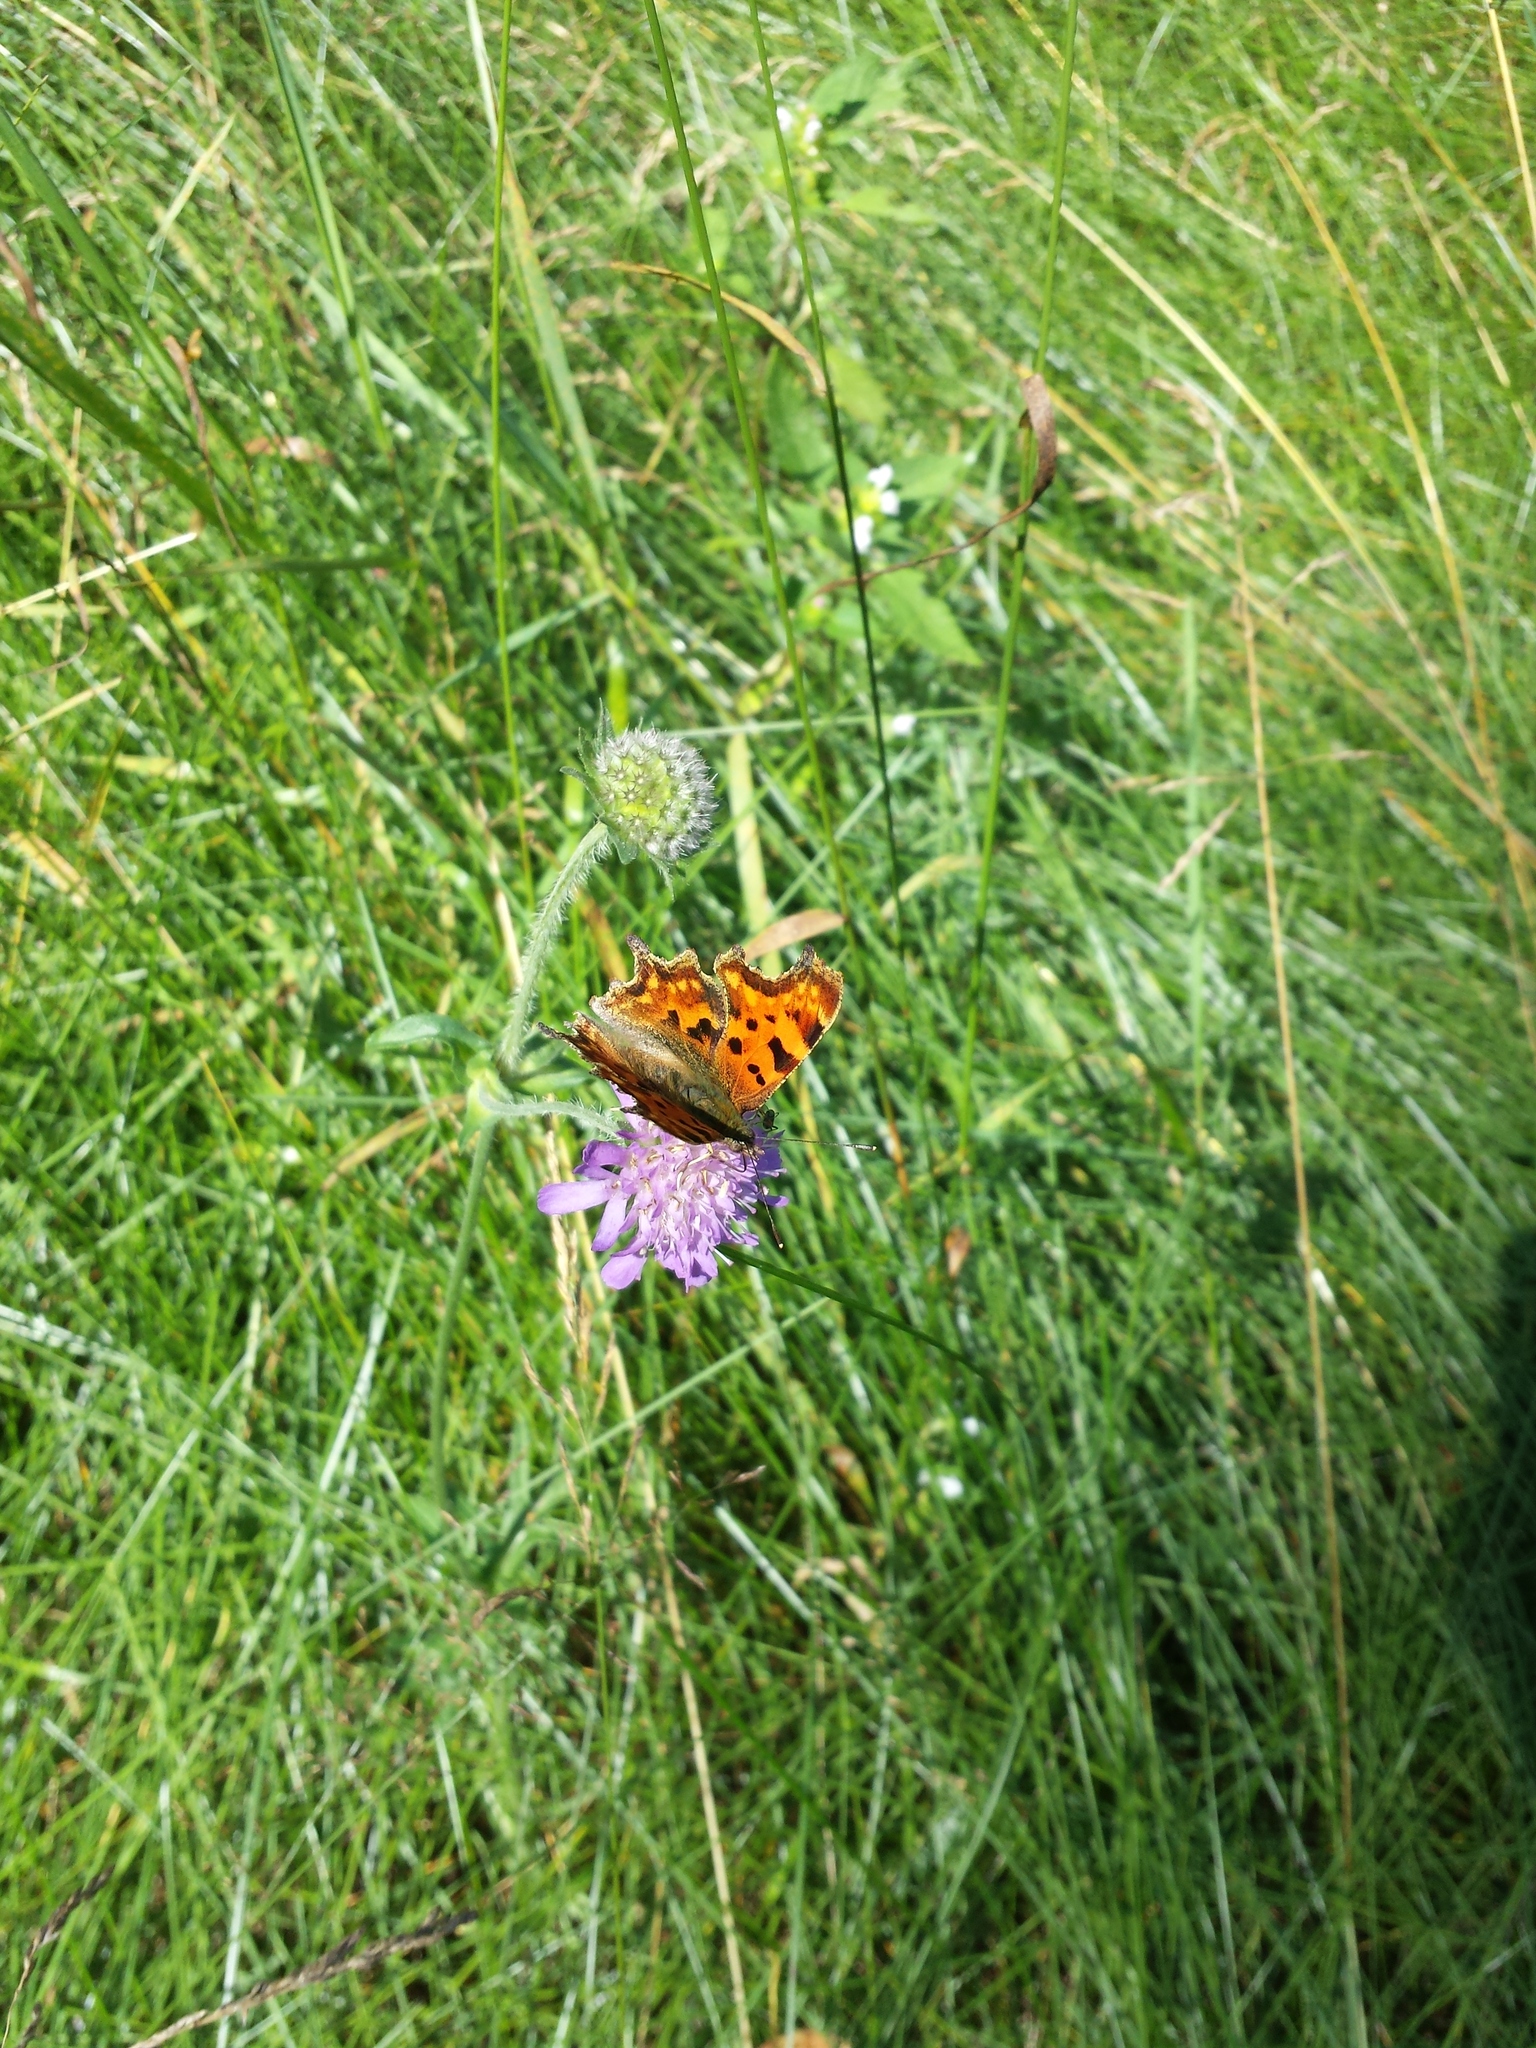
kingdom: Animalia
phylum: Arthropoda
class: Insecta
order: Lepidoptera
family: Nymphalidae
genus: Polygonia
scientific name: Polygonia c-album
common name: Comma
